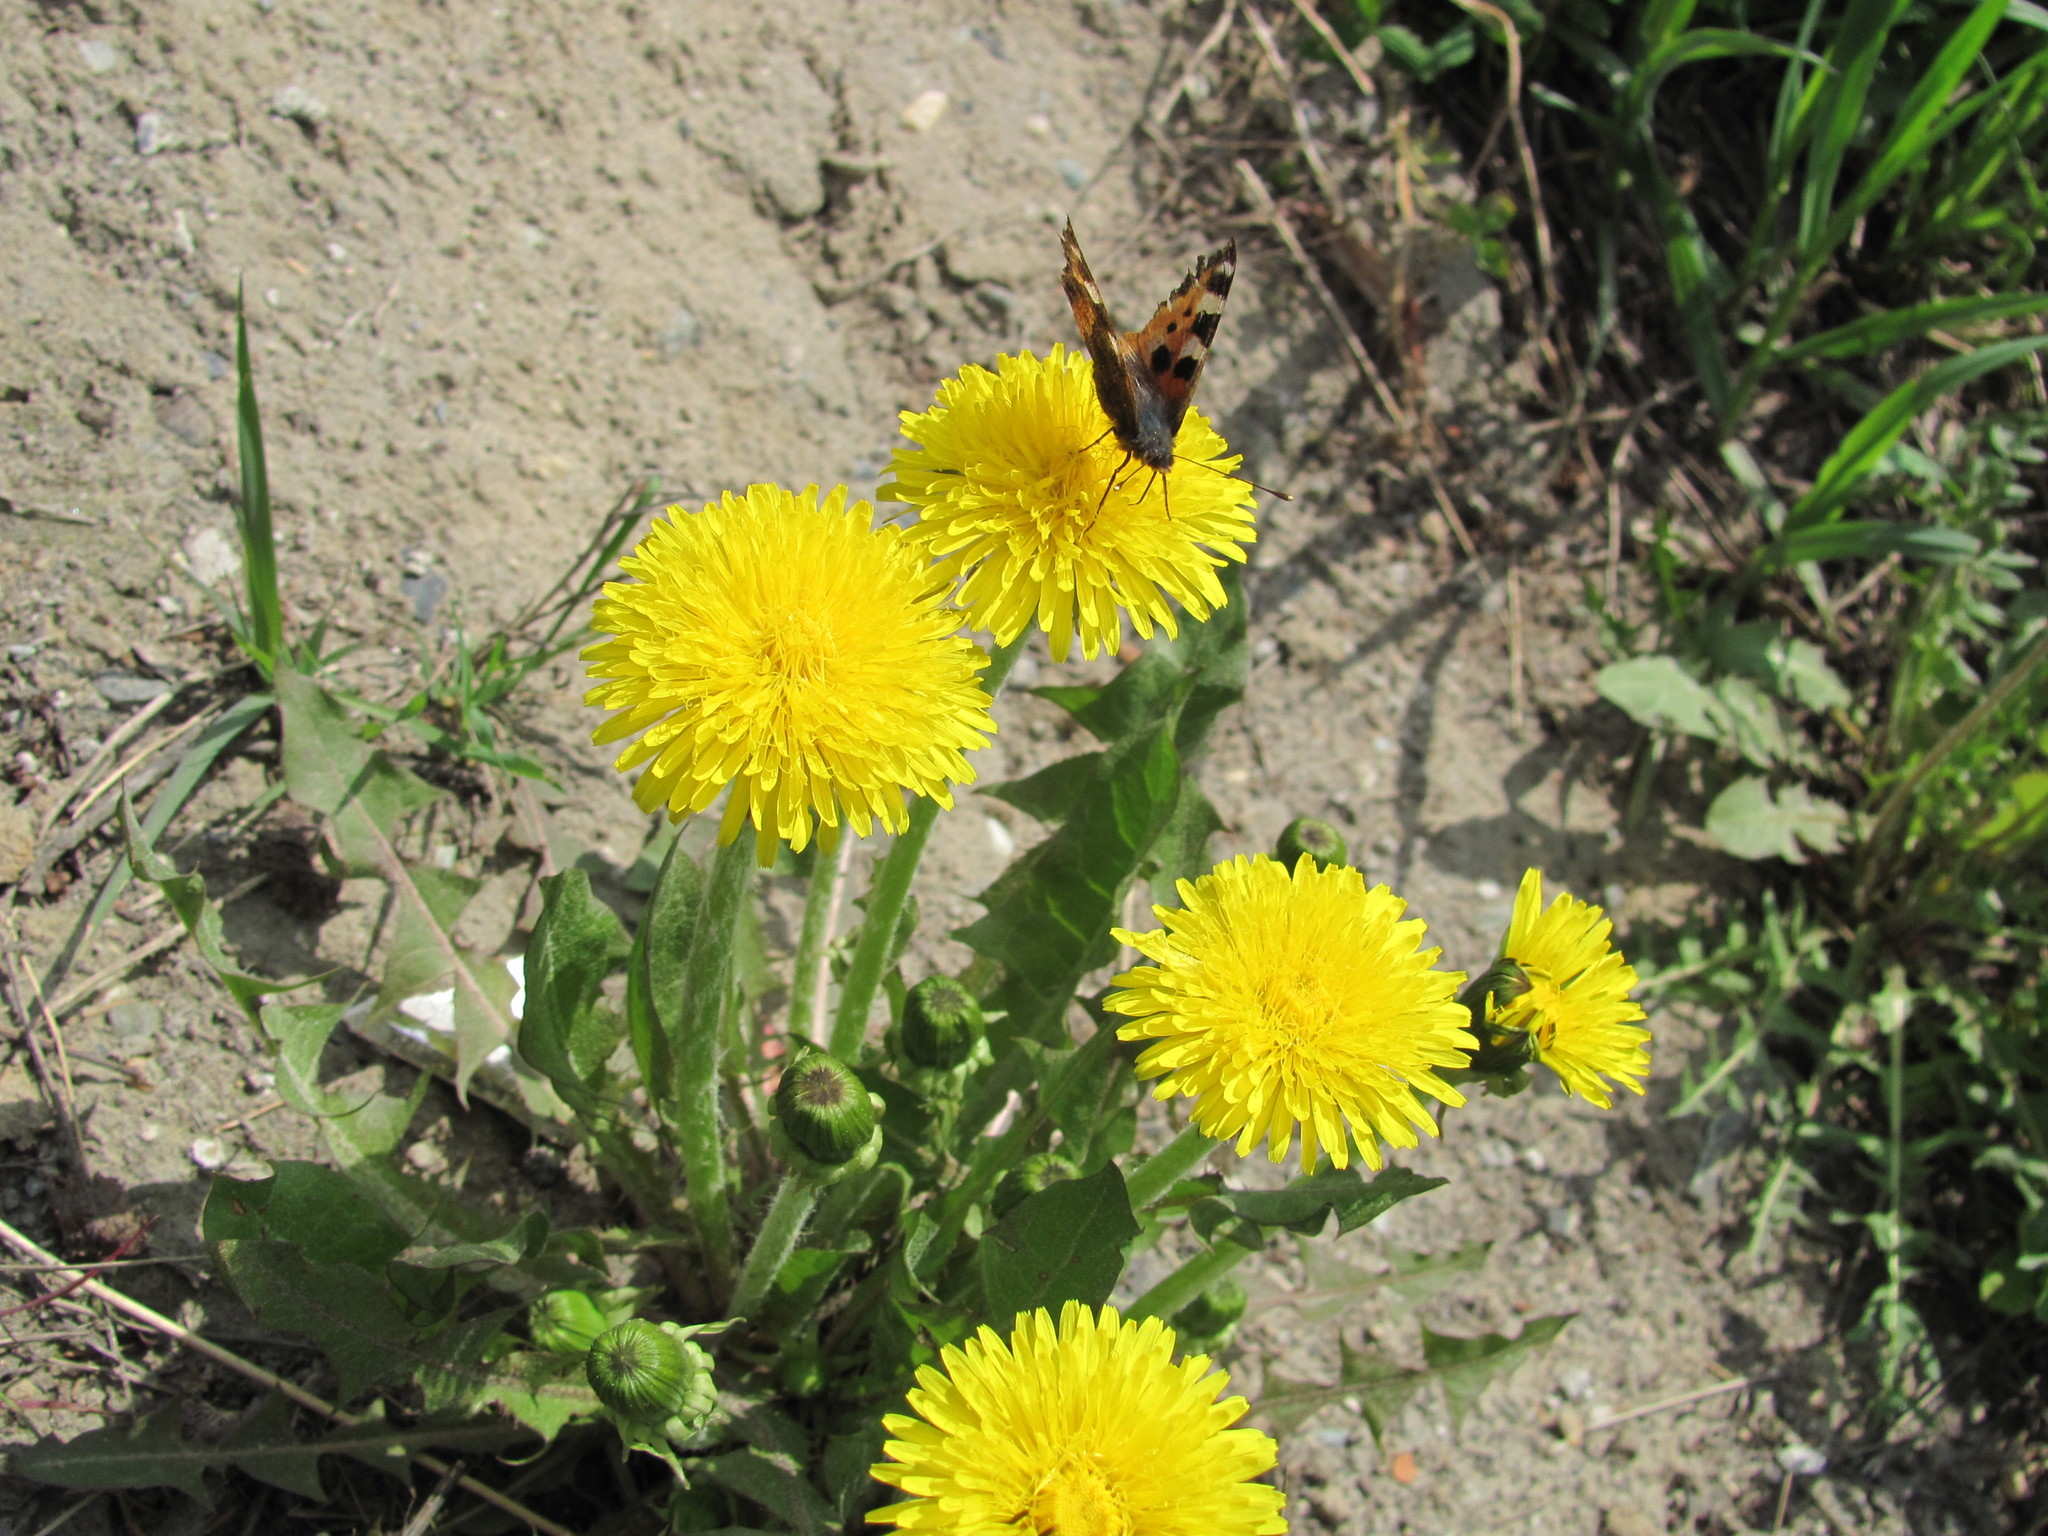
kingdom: Animalia
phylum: Arthropoda
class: Insecta
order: Lepidoptera
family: Nymphalidae
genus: Aglais
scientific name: Aglais urticae
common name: Small tortoiseshell
